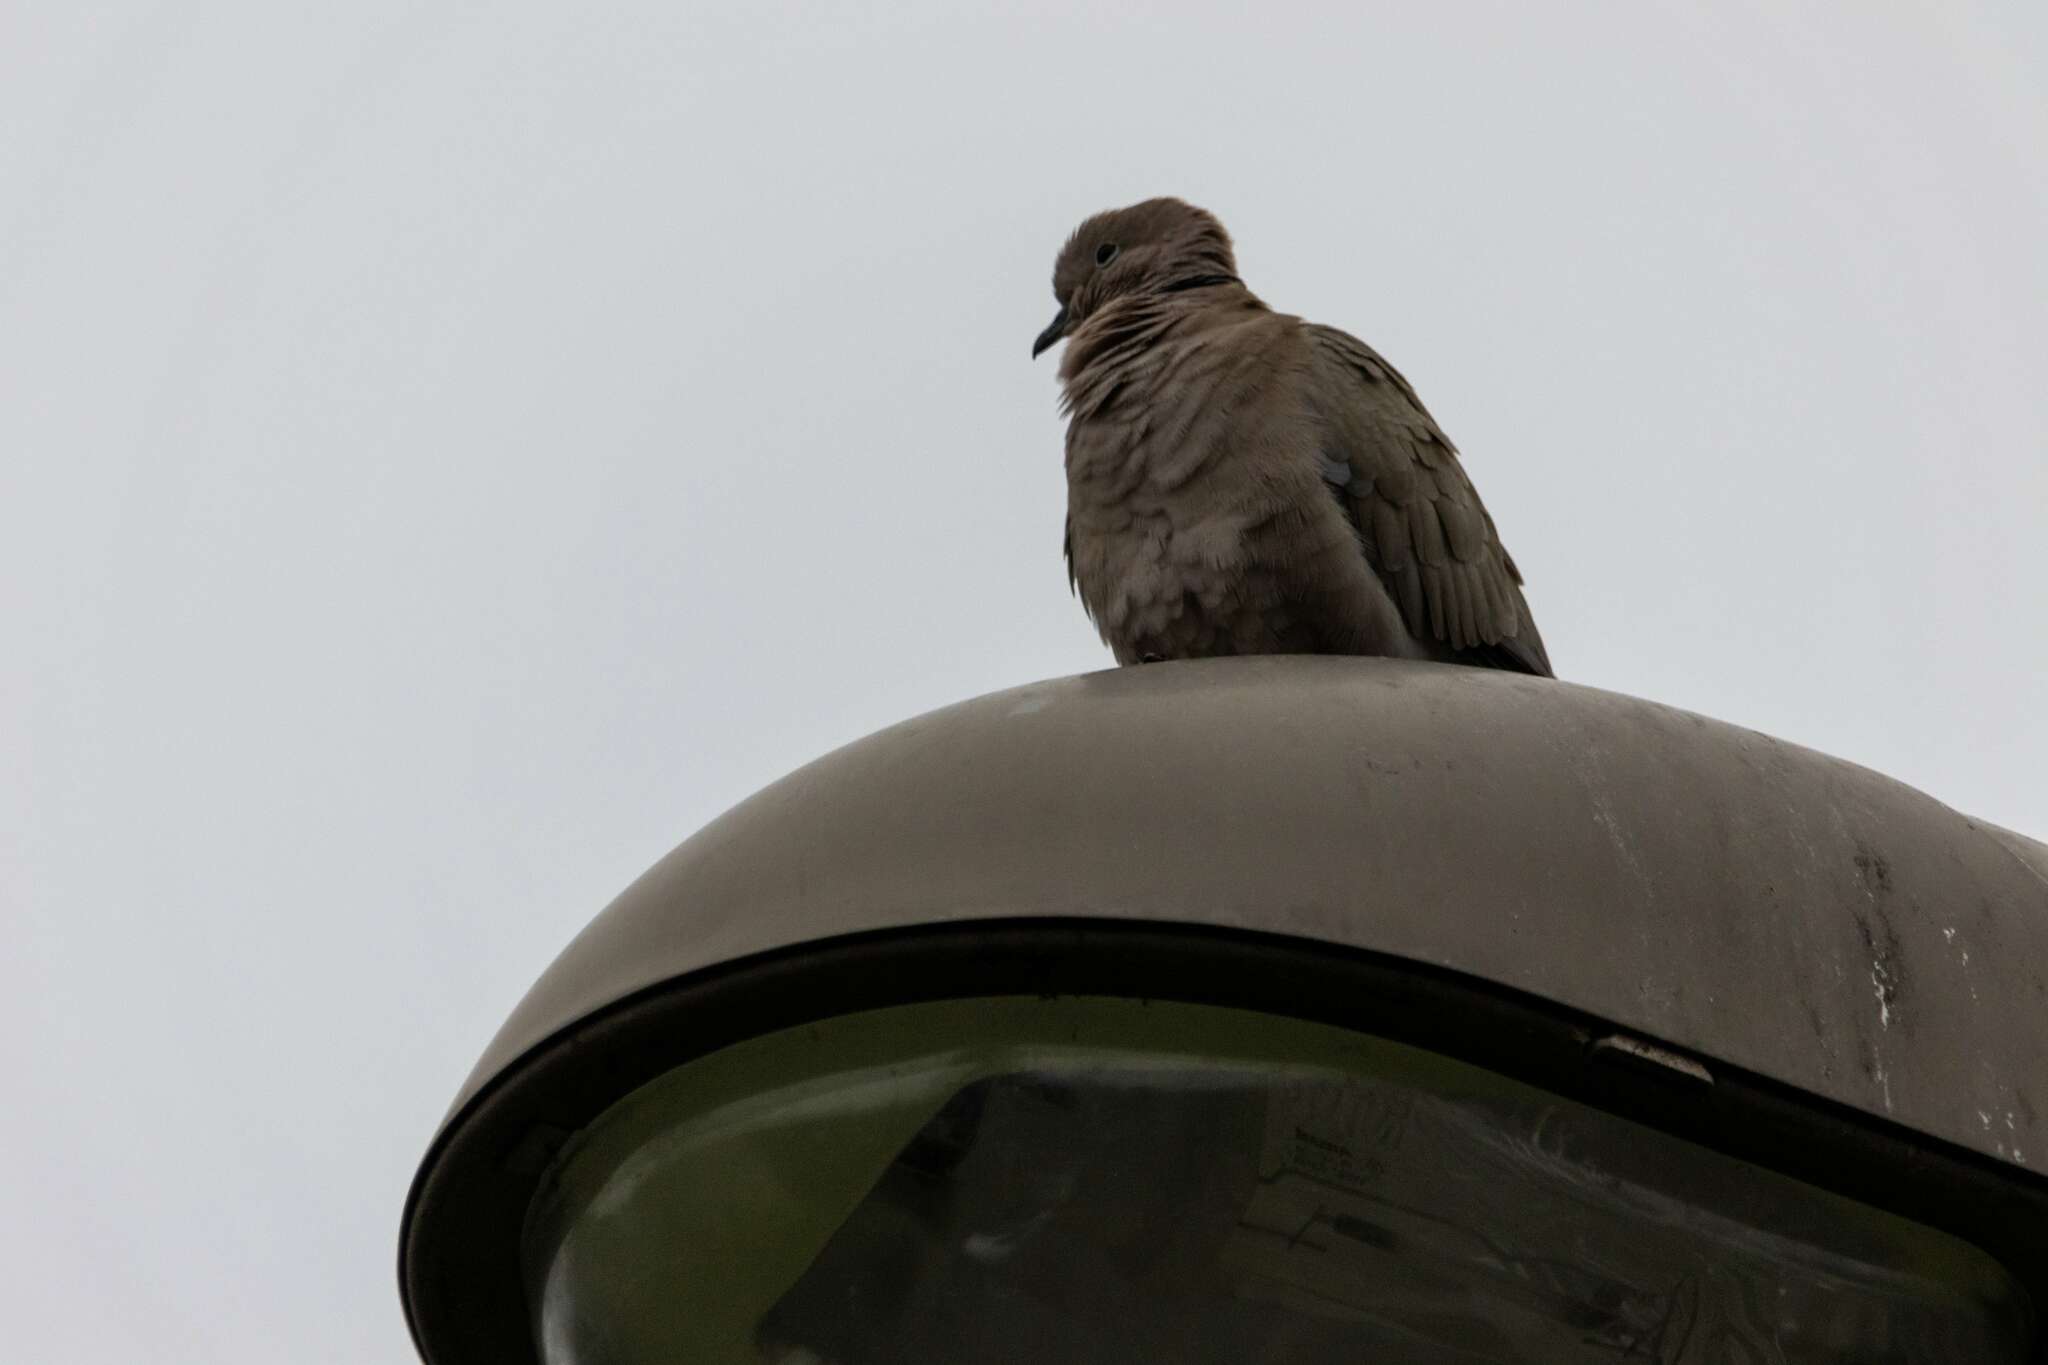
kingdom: Animalia
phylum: Chordata
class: Aves
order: Columbiformes
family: Columbidae
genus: Streptopelia
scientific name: Streptopelia decaocto
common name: Eurasian collared dove
